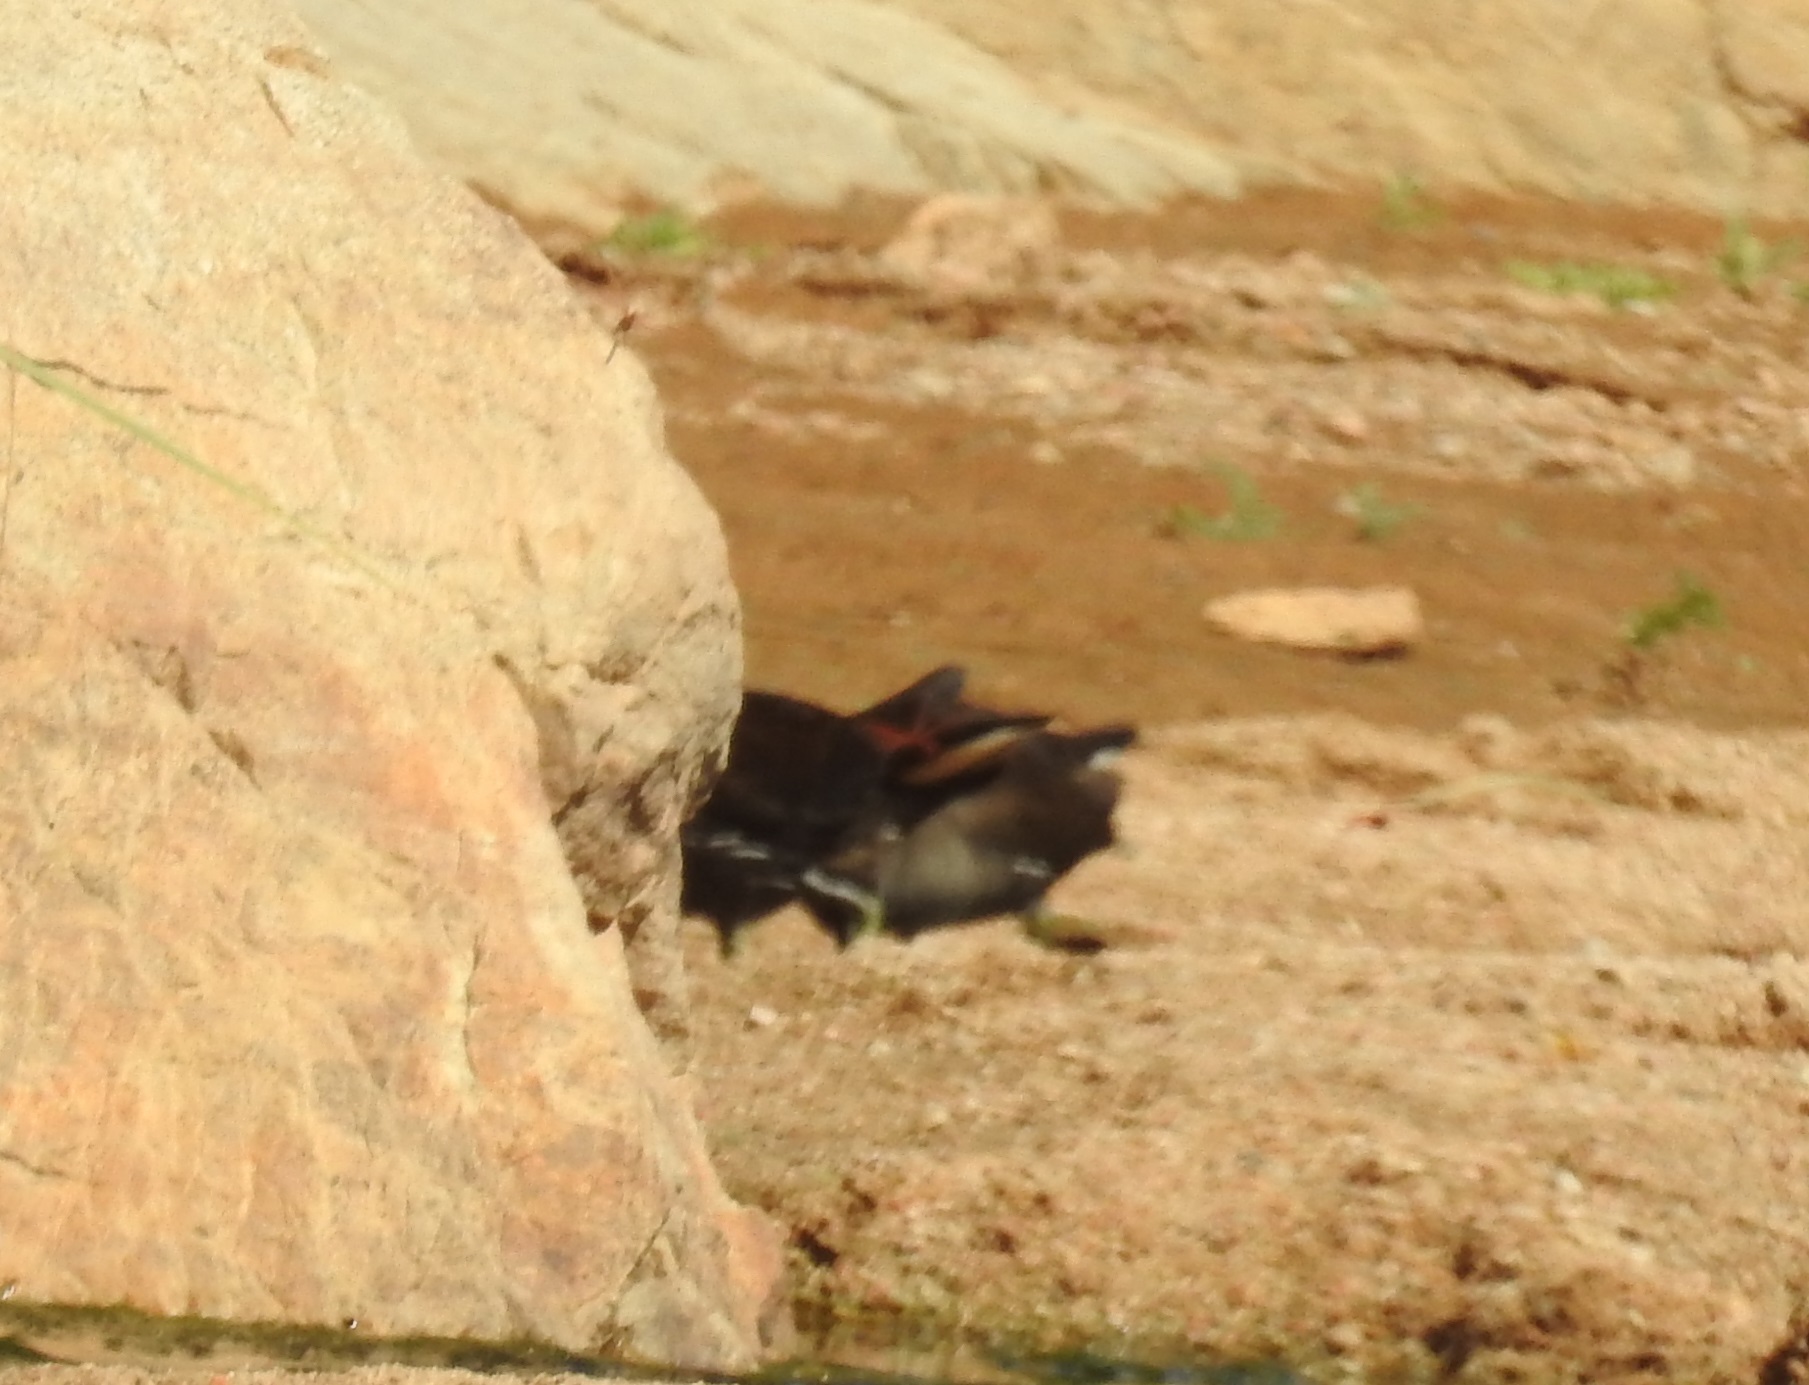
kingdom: Animalia
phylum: Chordata
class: Aves
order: Gruiformes
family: Rallidae
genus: Gallinula
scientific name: Gallinula chloropus
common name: Common moorhen
